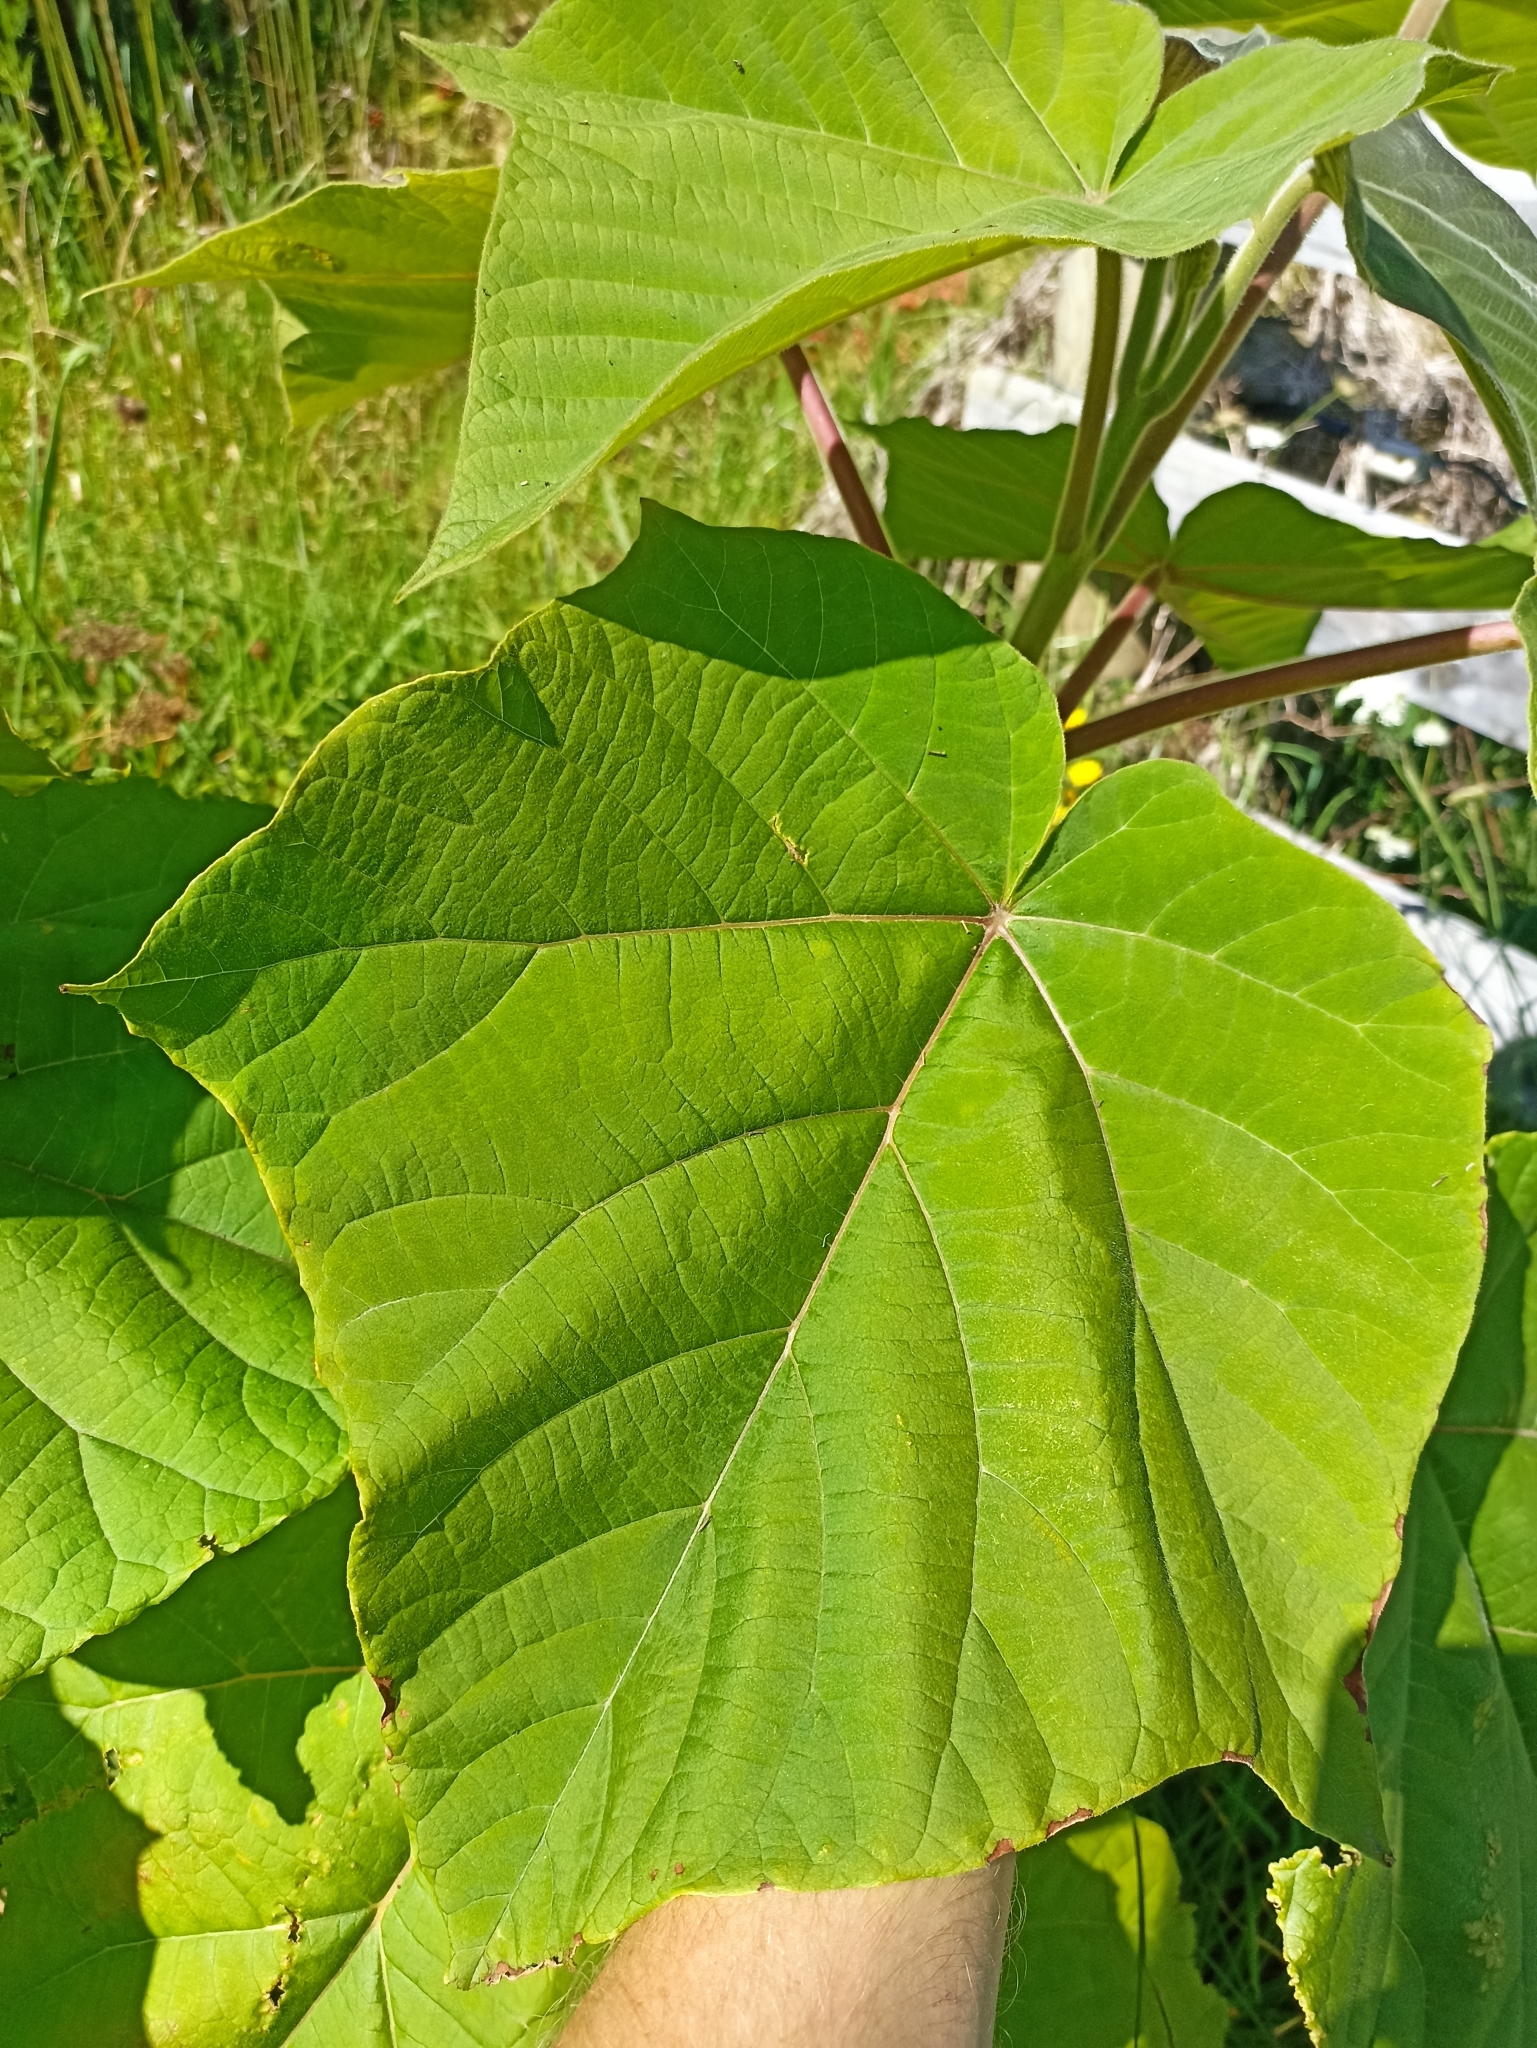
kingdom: Plantae
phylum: Tracheophyta
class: Magnoliopsida
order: Lamiales
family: Paulowniaceae
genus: Paulownia
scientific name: Paulownia tomentosa
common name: Foxglove-tree
